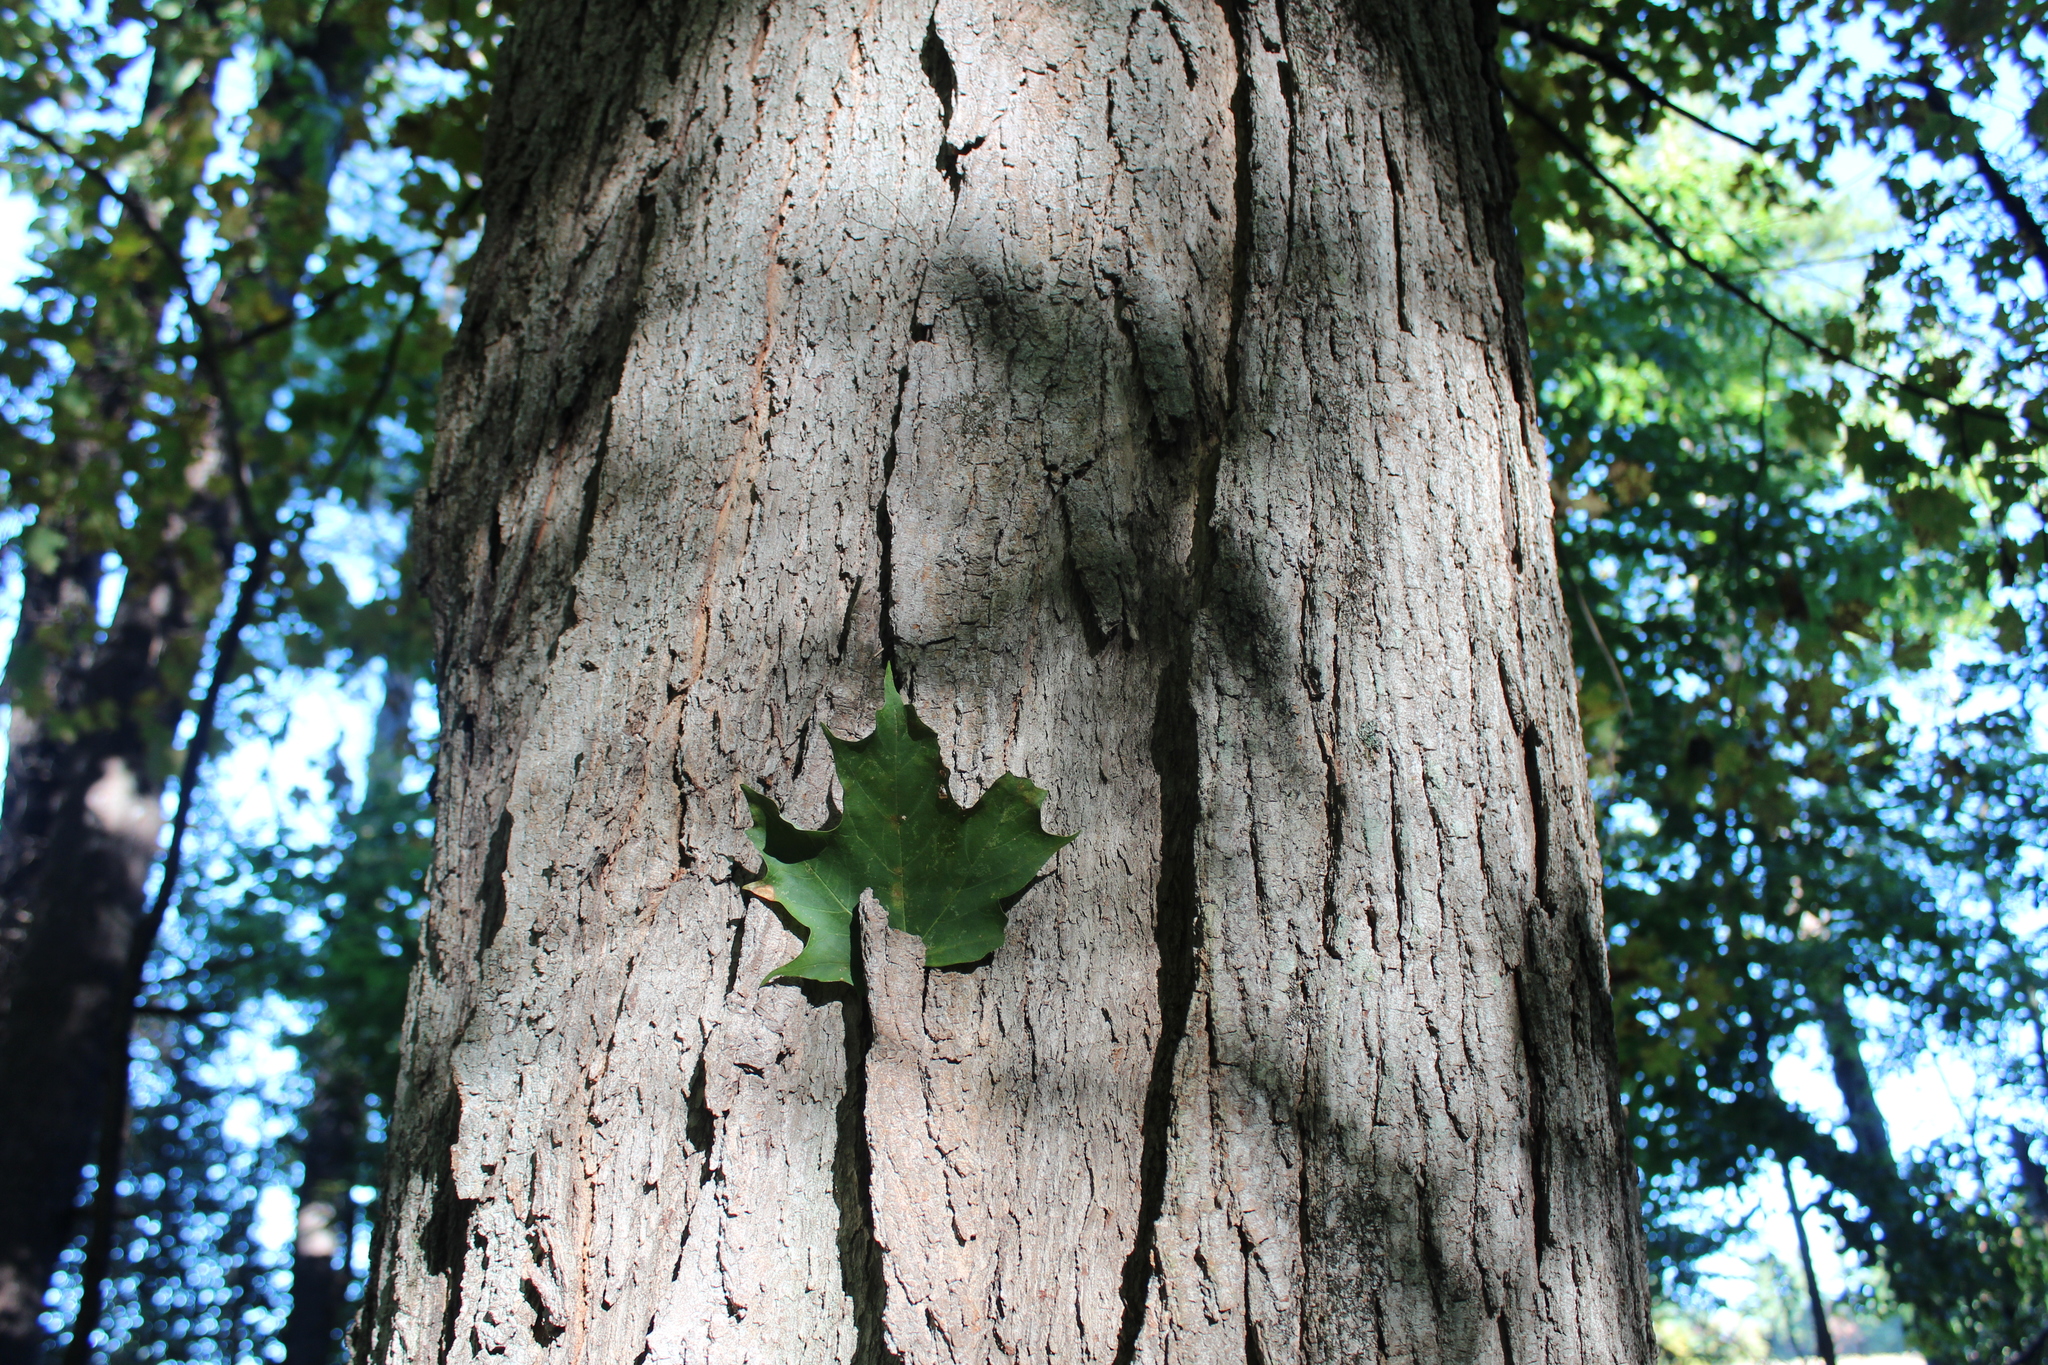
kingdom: Plantae
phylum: Tracheophyta
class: Magnoliopsida
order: Sapindales
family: Sapindaceae
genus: Acer
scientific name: Acer saccharum
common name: Sugar maple
